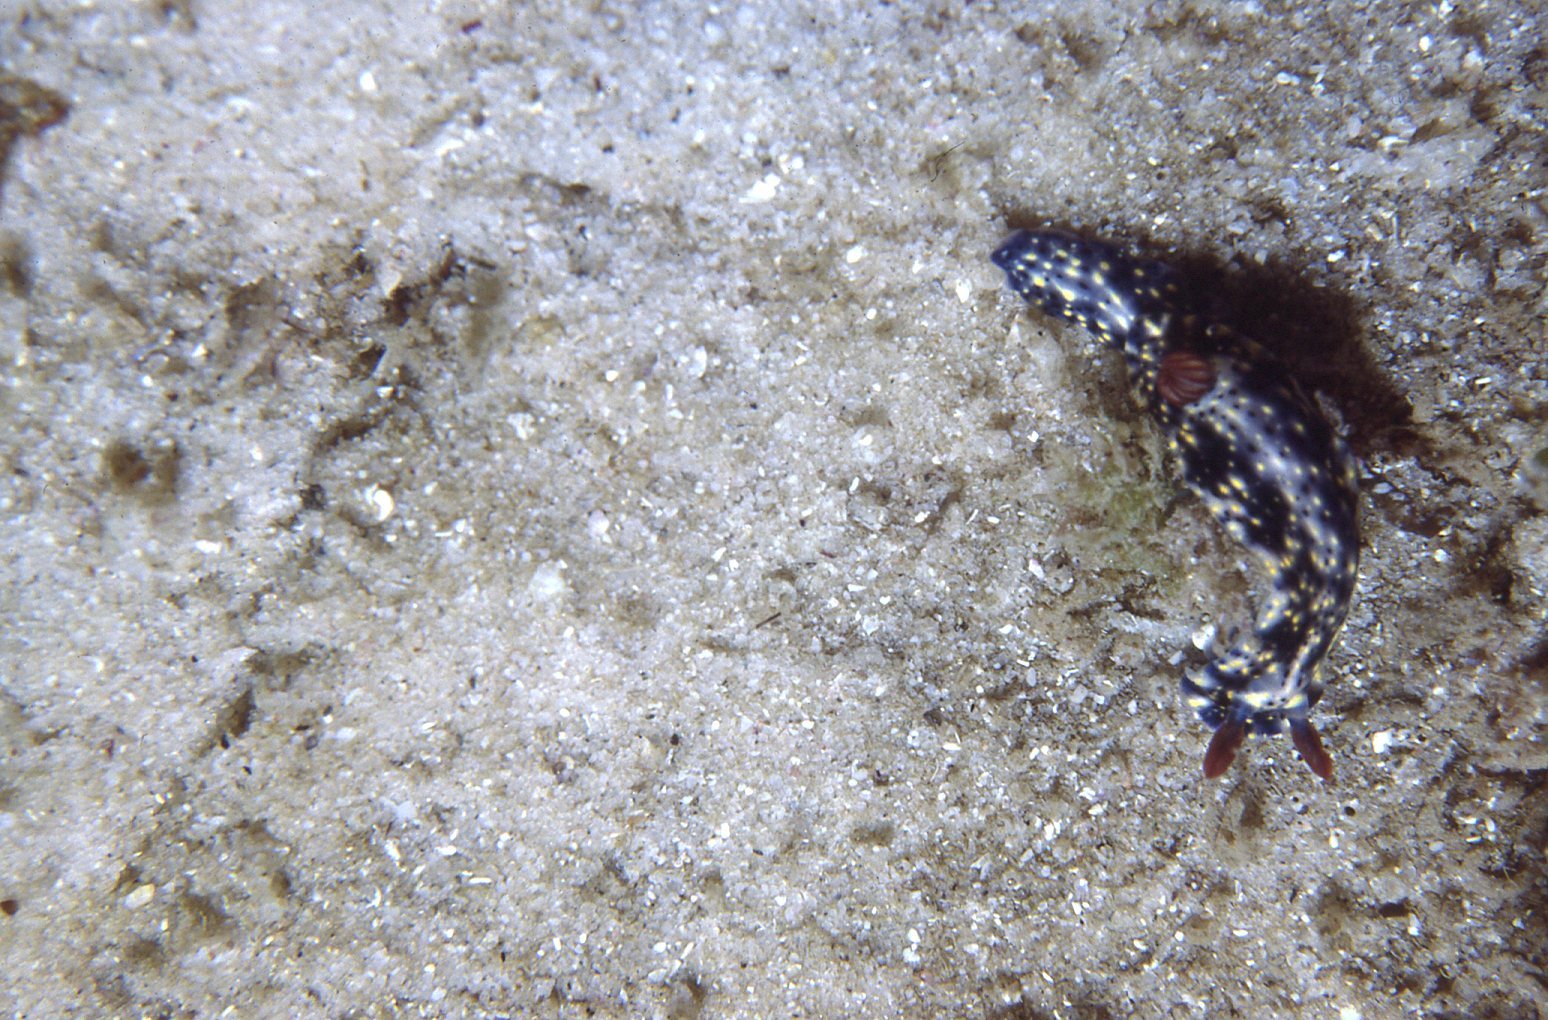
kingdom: Animalia
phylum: Mollusca
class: Gastropoda
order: Nudibranchia
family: Chromodorididae
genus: Hypselodoris
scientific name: Hypselodoris obscura
